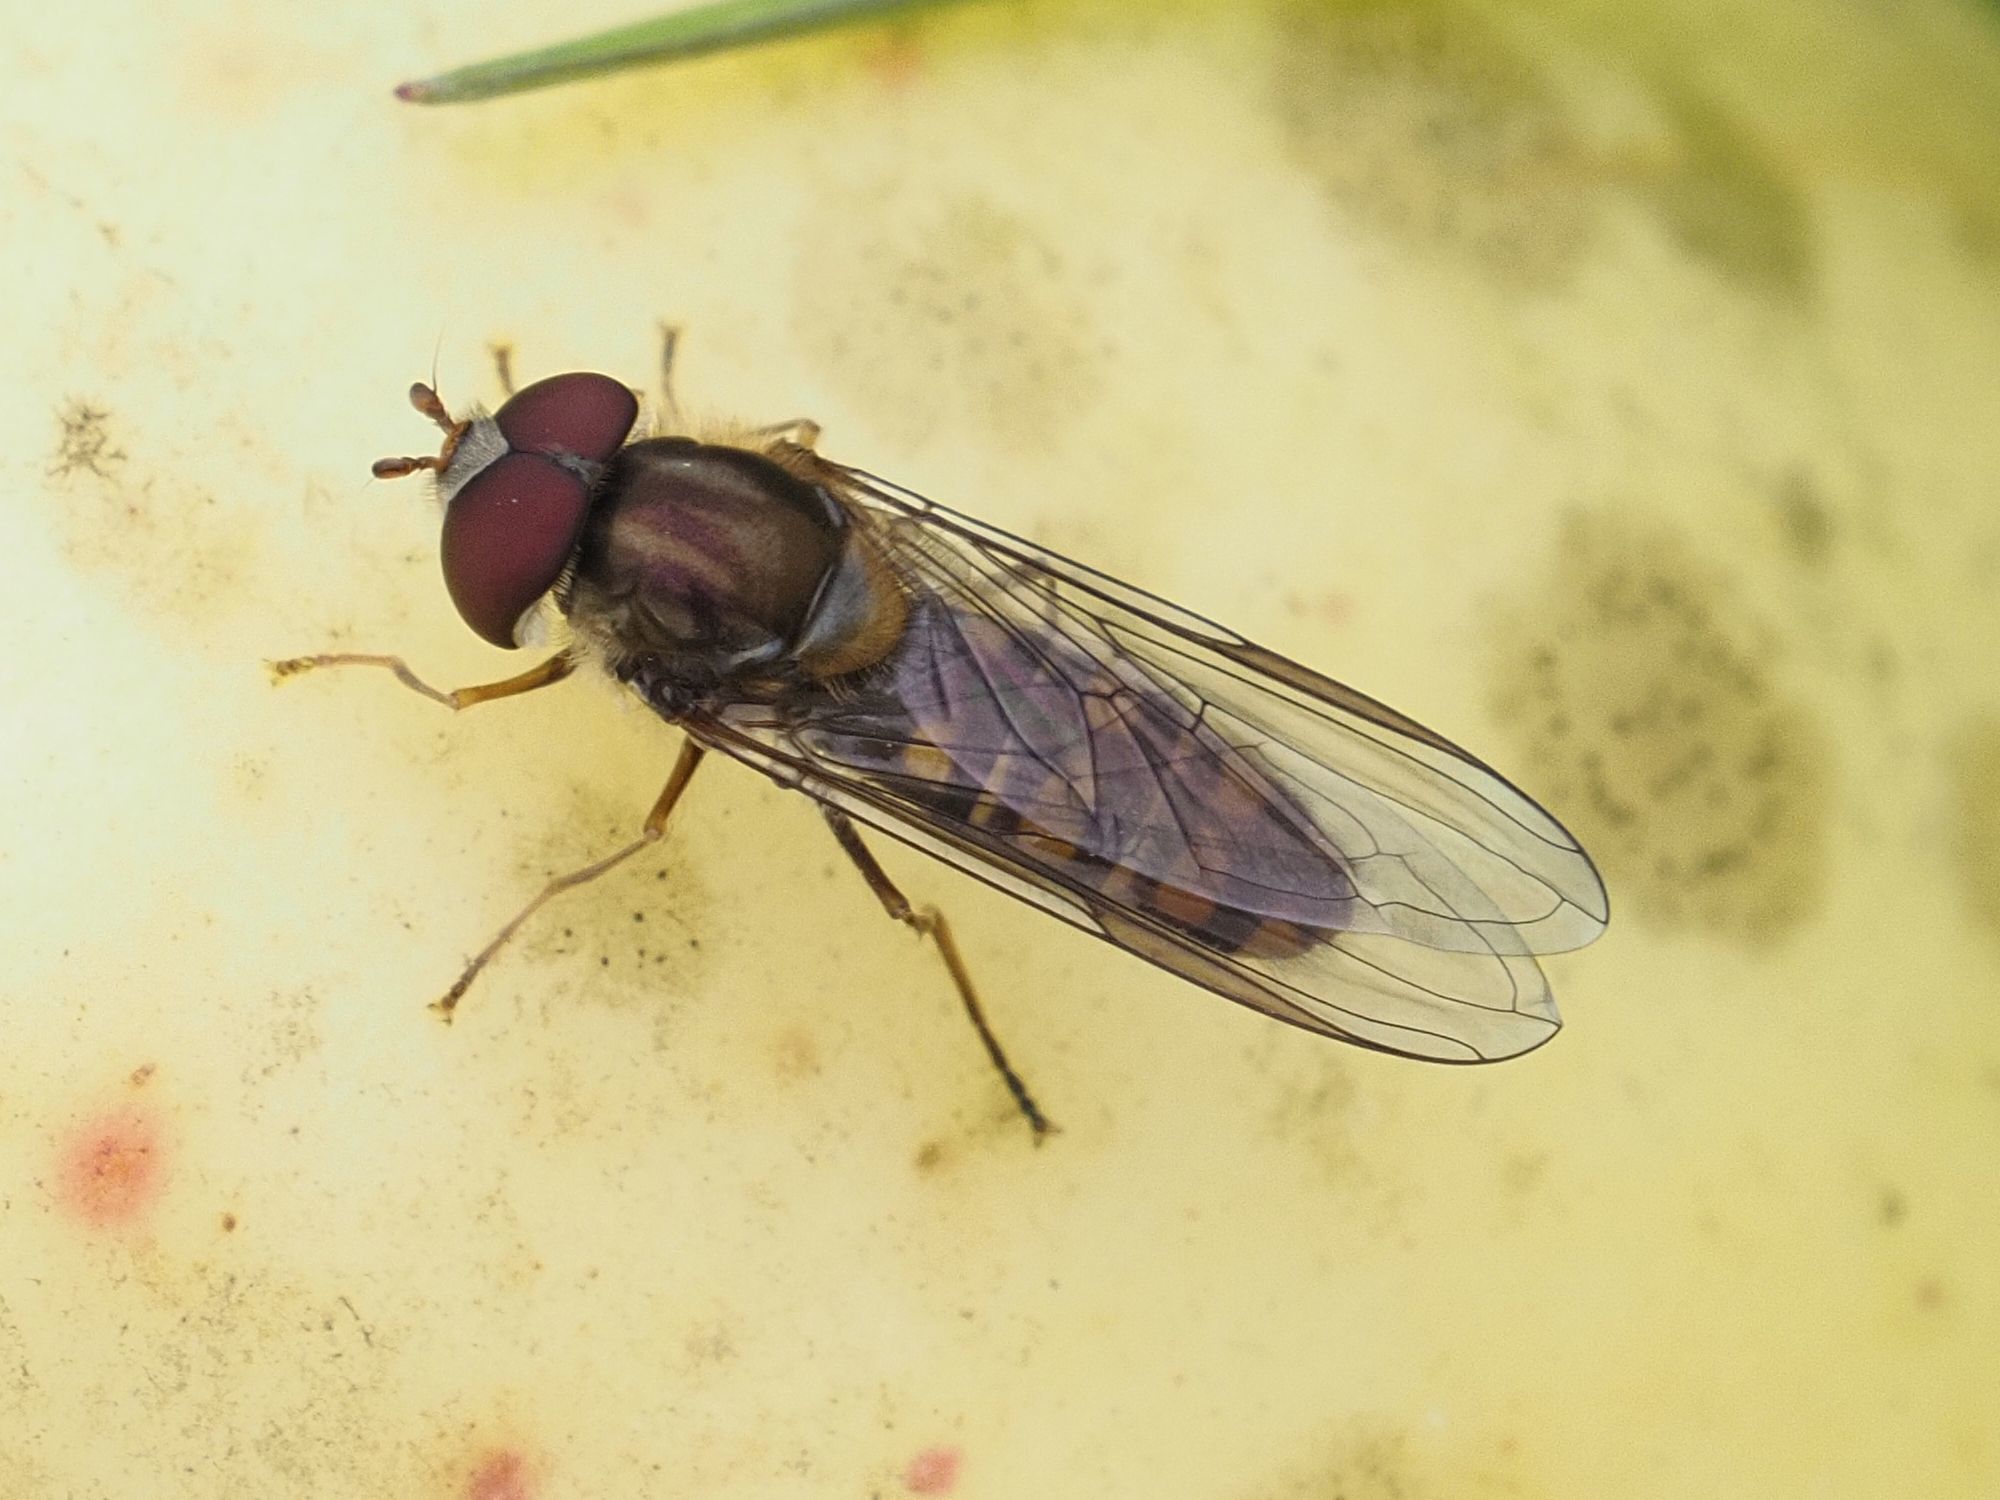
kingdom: Animalia
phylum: Arthropoda
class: Insecta
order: Diptera
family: Syrphidae
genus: Episyrphus
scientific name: Episyrphus balteatus
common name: Marmalade hoverfly
